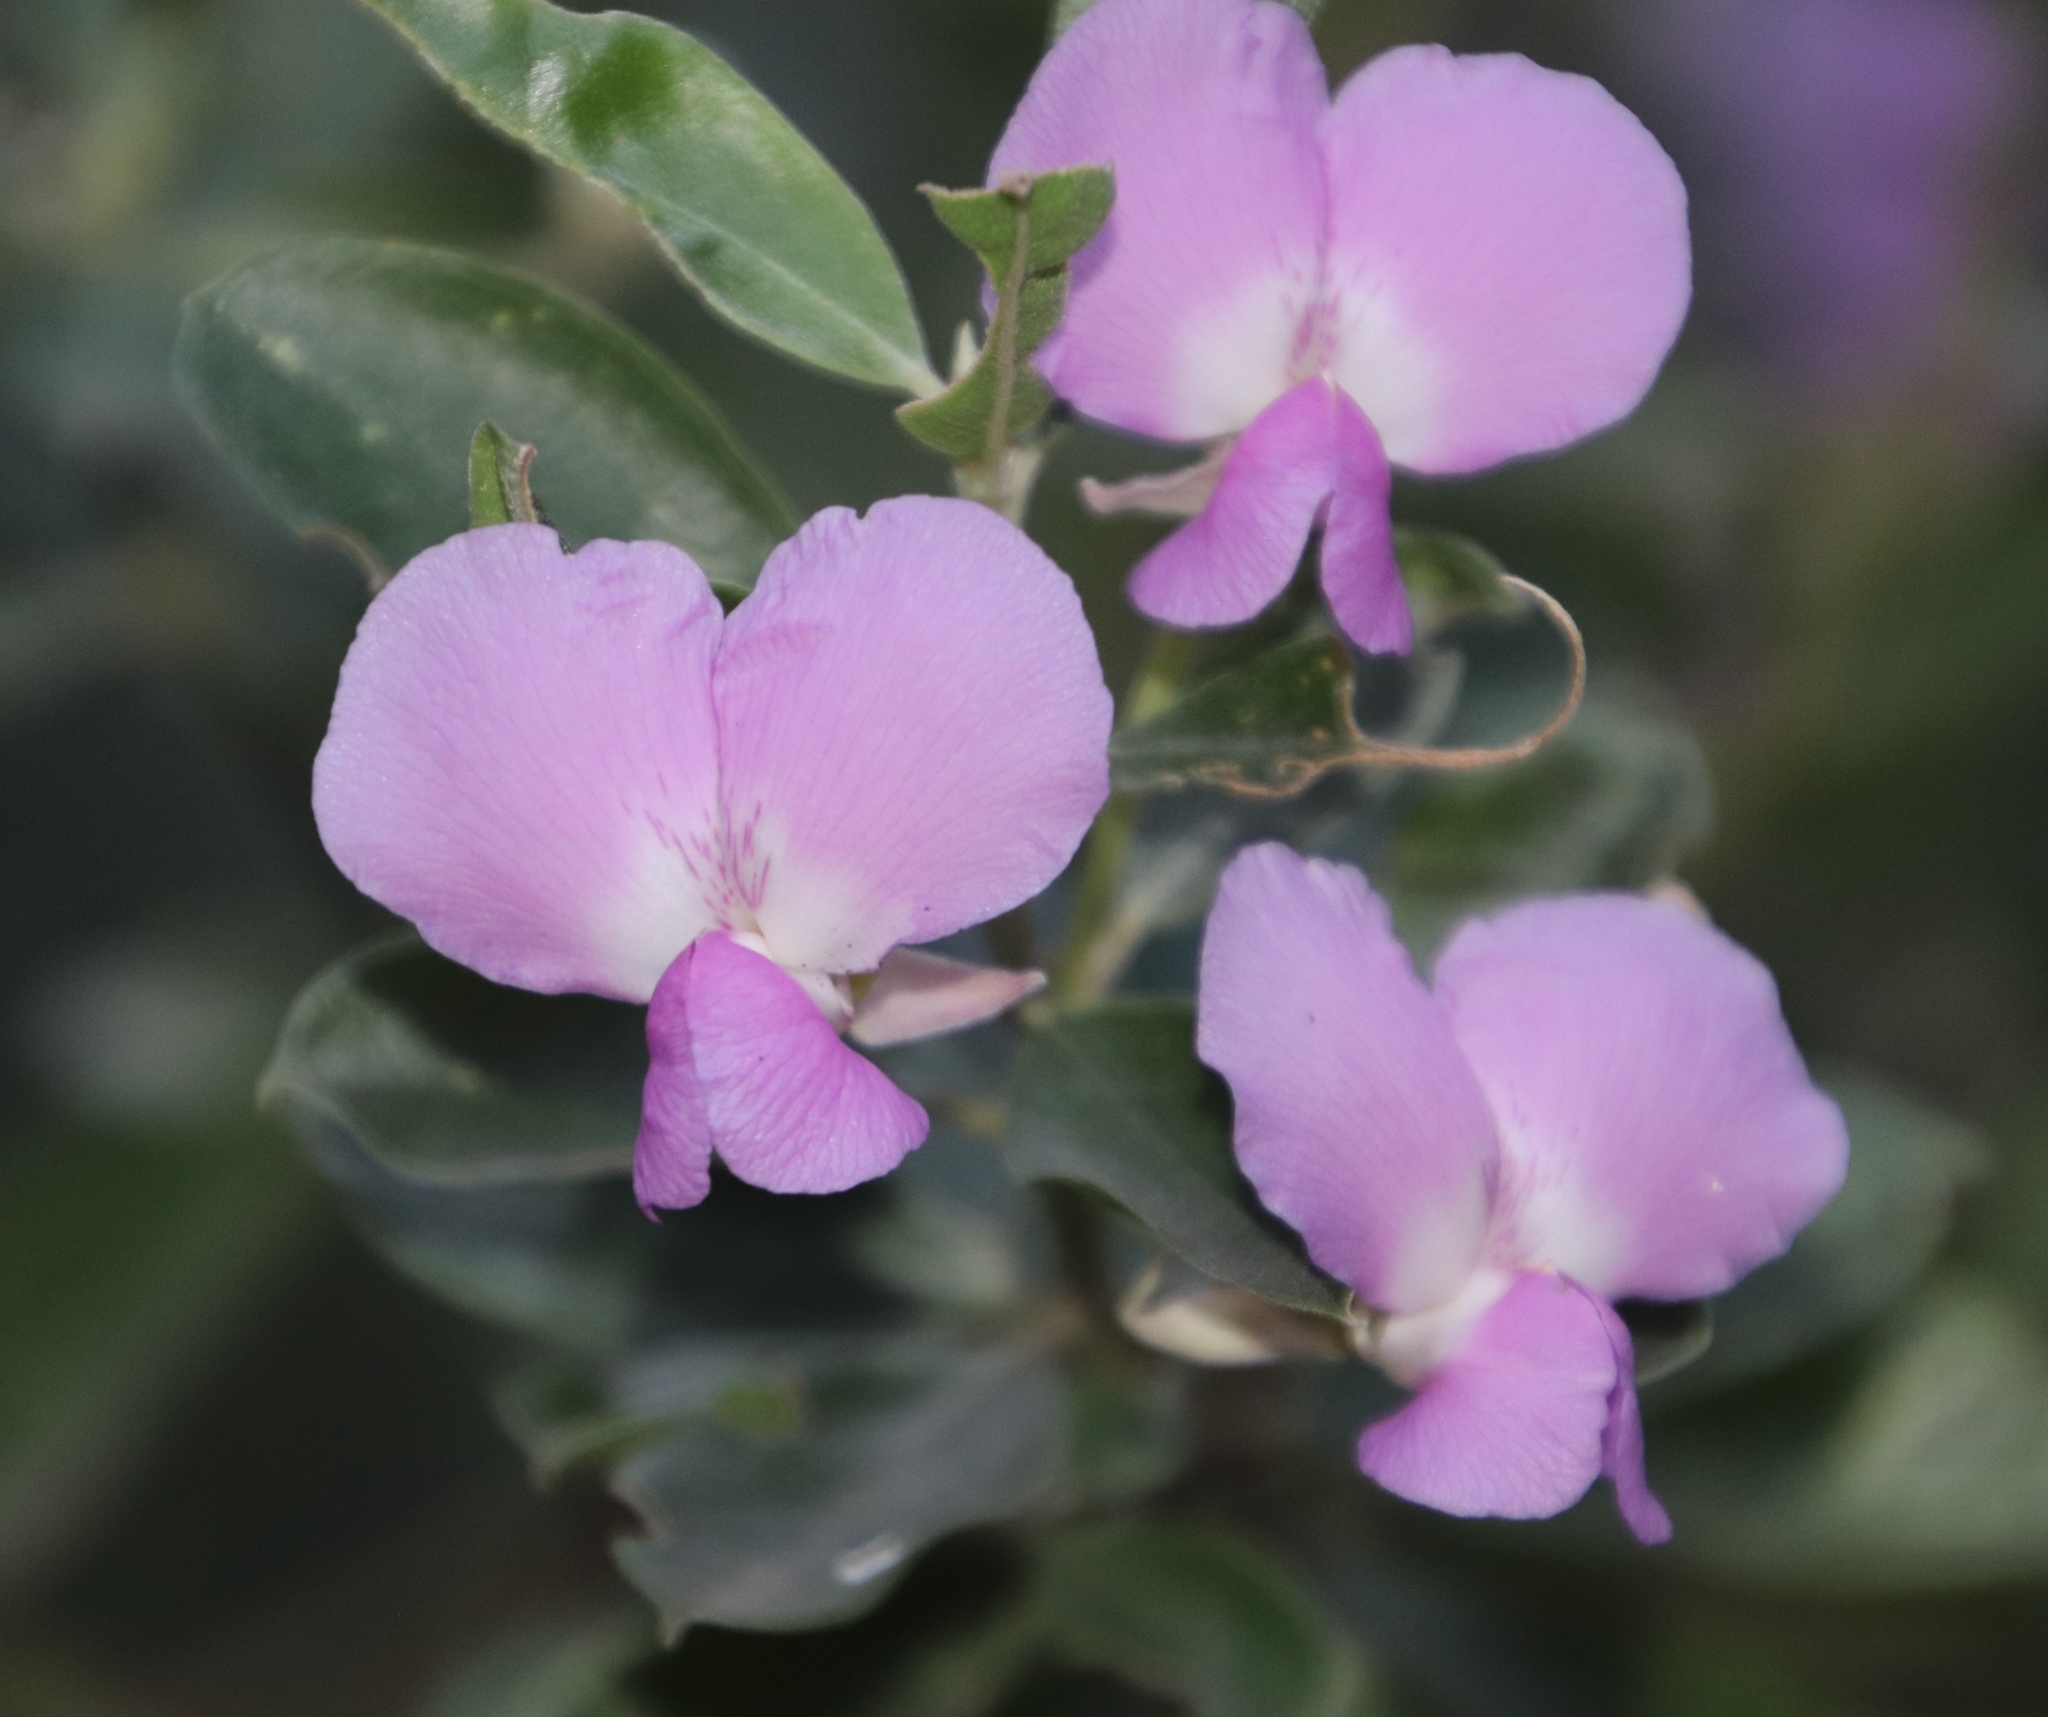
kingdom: Plantae
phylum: Tracheophyta
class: Magnoliopsida
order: Fabales
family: Fabaceae
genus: Podalyria
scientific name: Podalyria calyptrata
